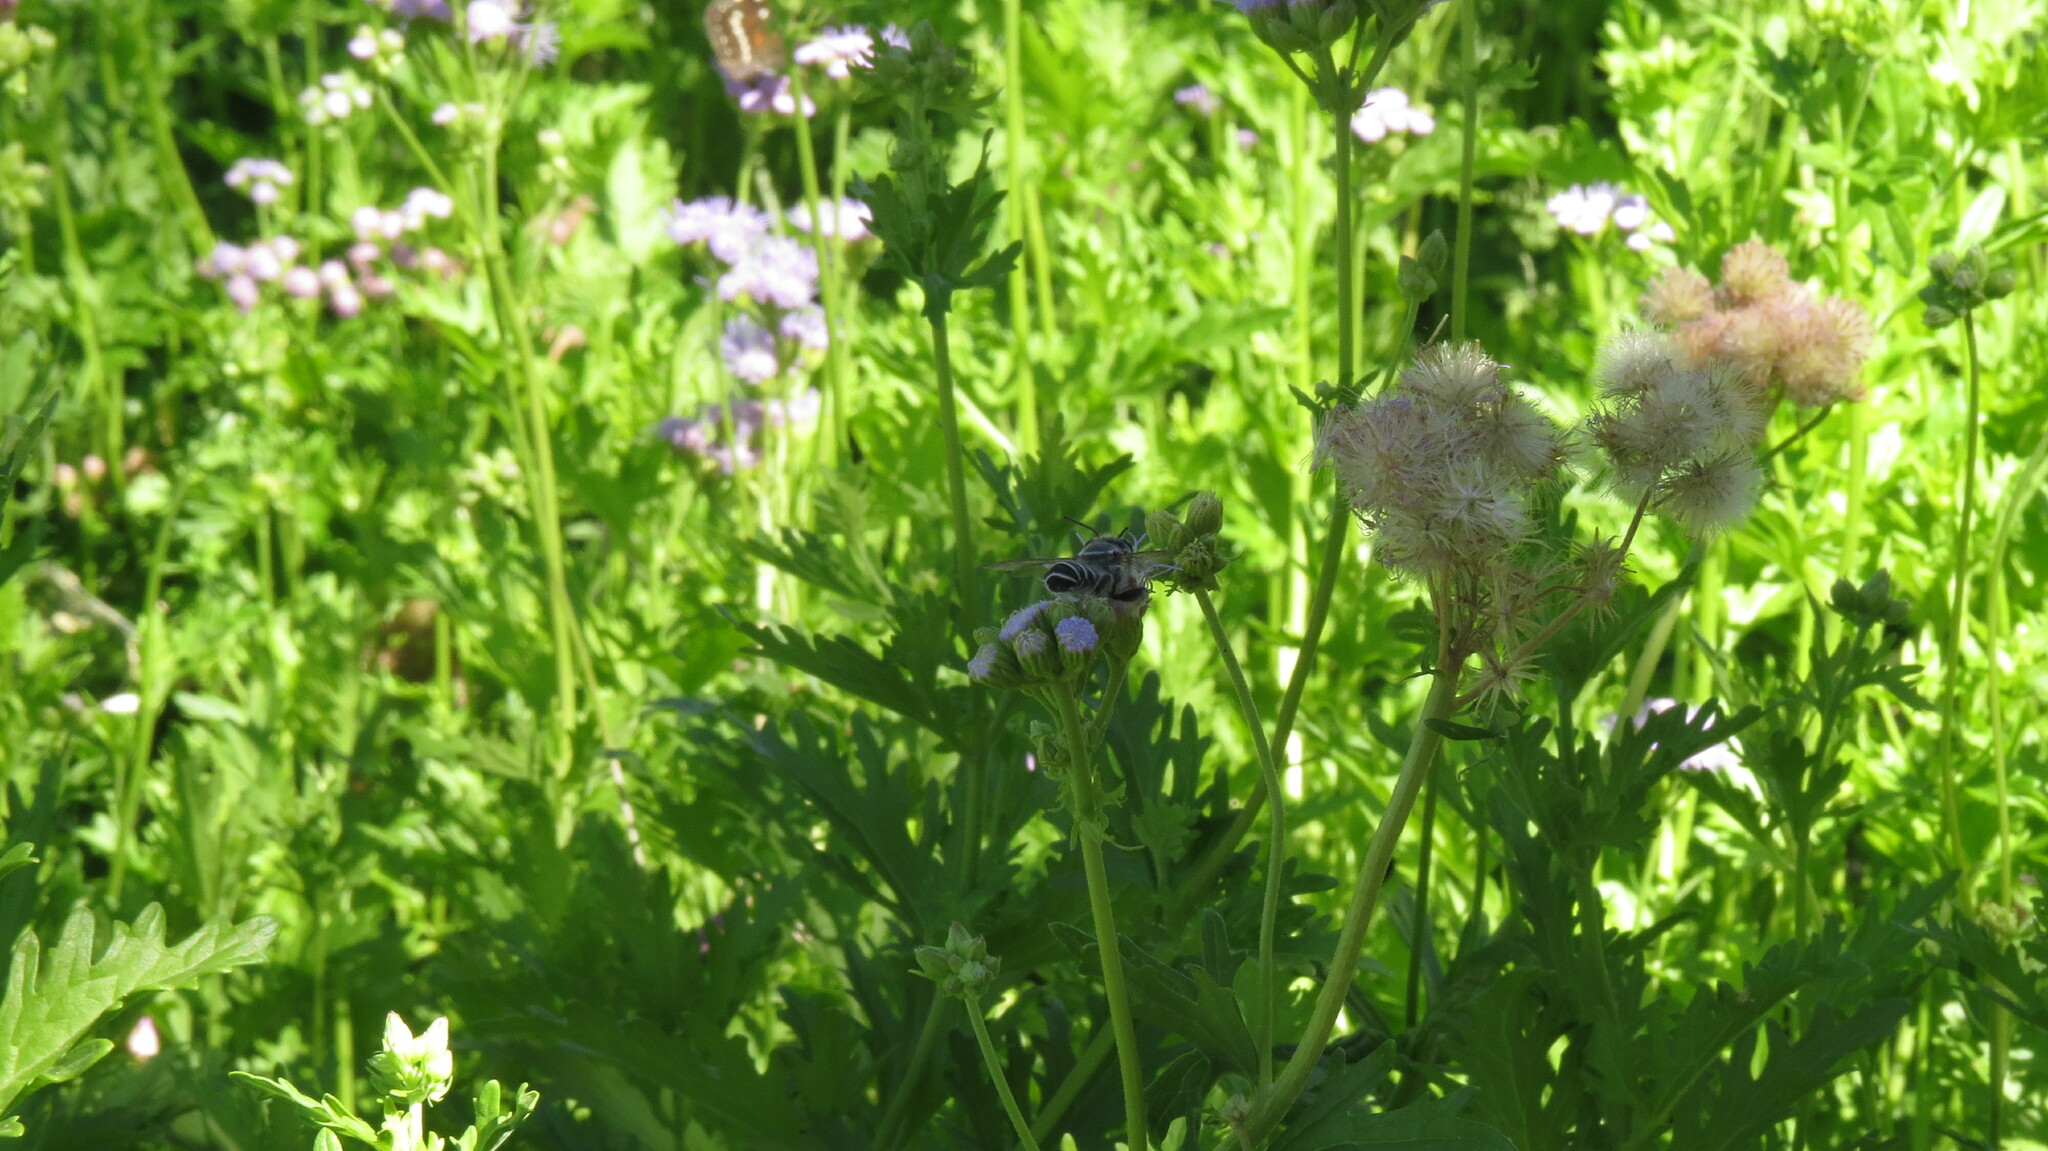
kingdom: Animalia
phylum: Arthropoda
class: Insecta
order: Hymenoptera
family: Megachilidae
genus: Megachile
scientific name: Megachile sidalceae
